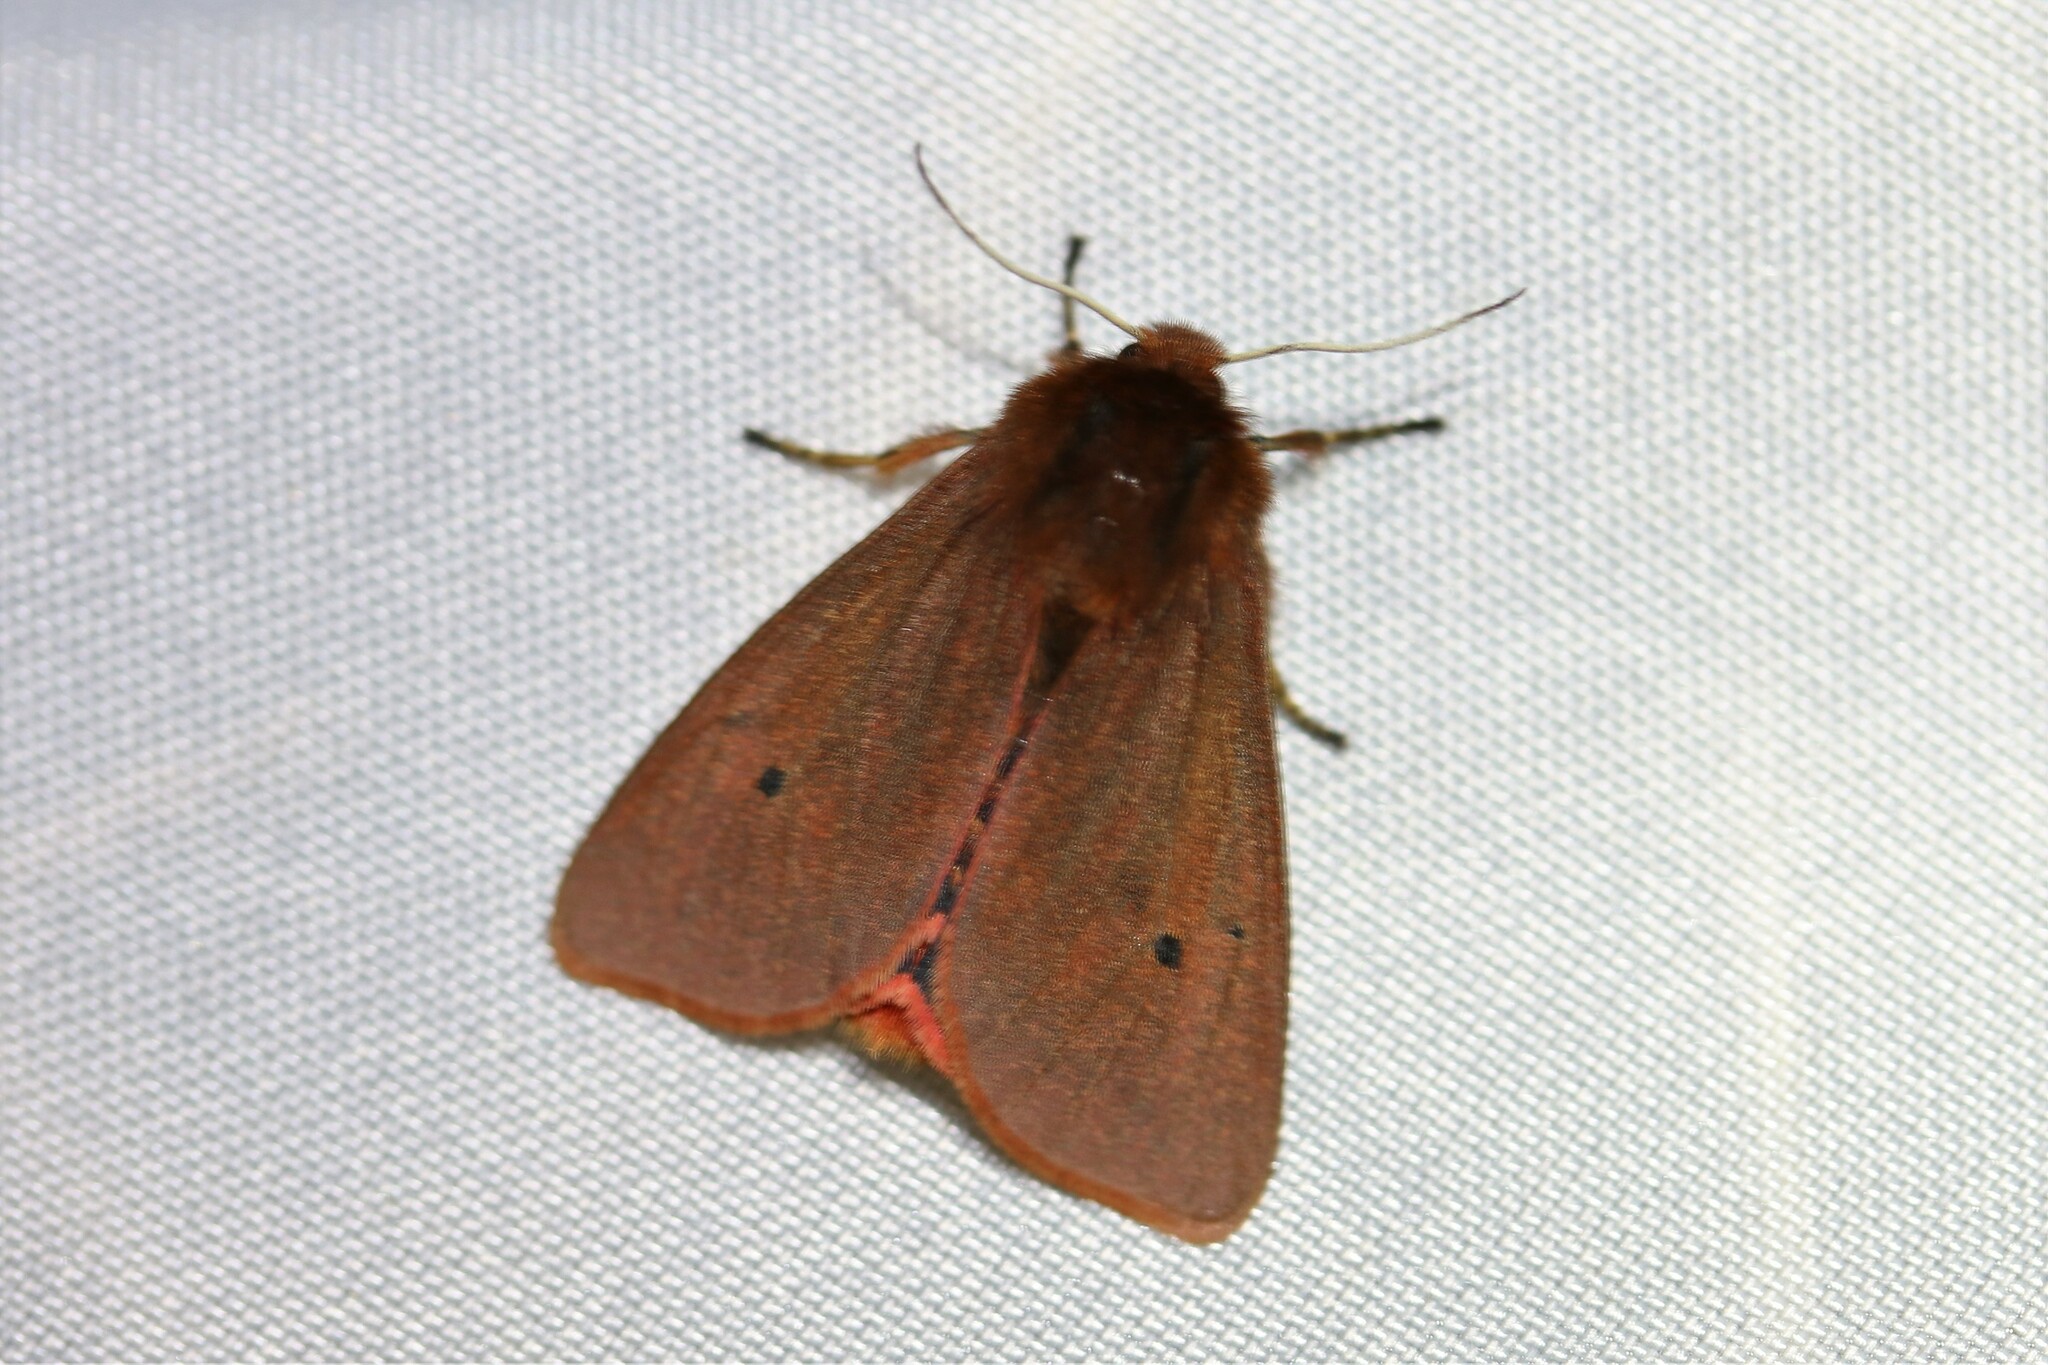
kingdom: Animalia
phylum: Arthropoda
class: Insecta
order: Lepidoptera
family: Erebidae
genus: Phragmatobia
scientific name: Phragmatobia fuliginosa
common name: Ruby tiger
